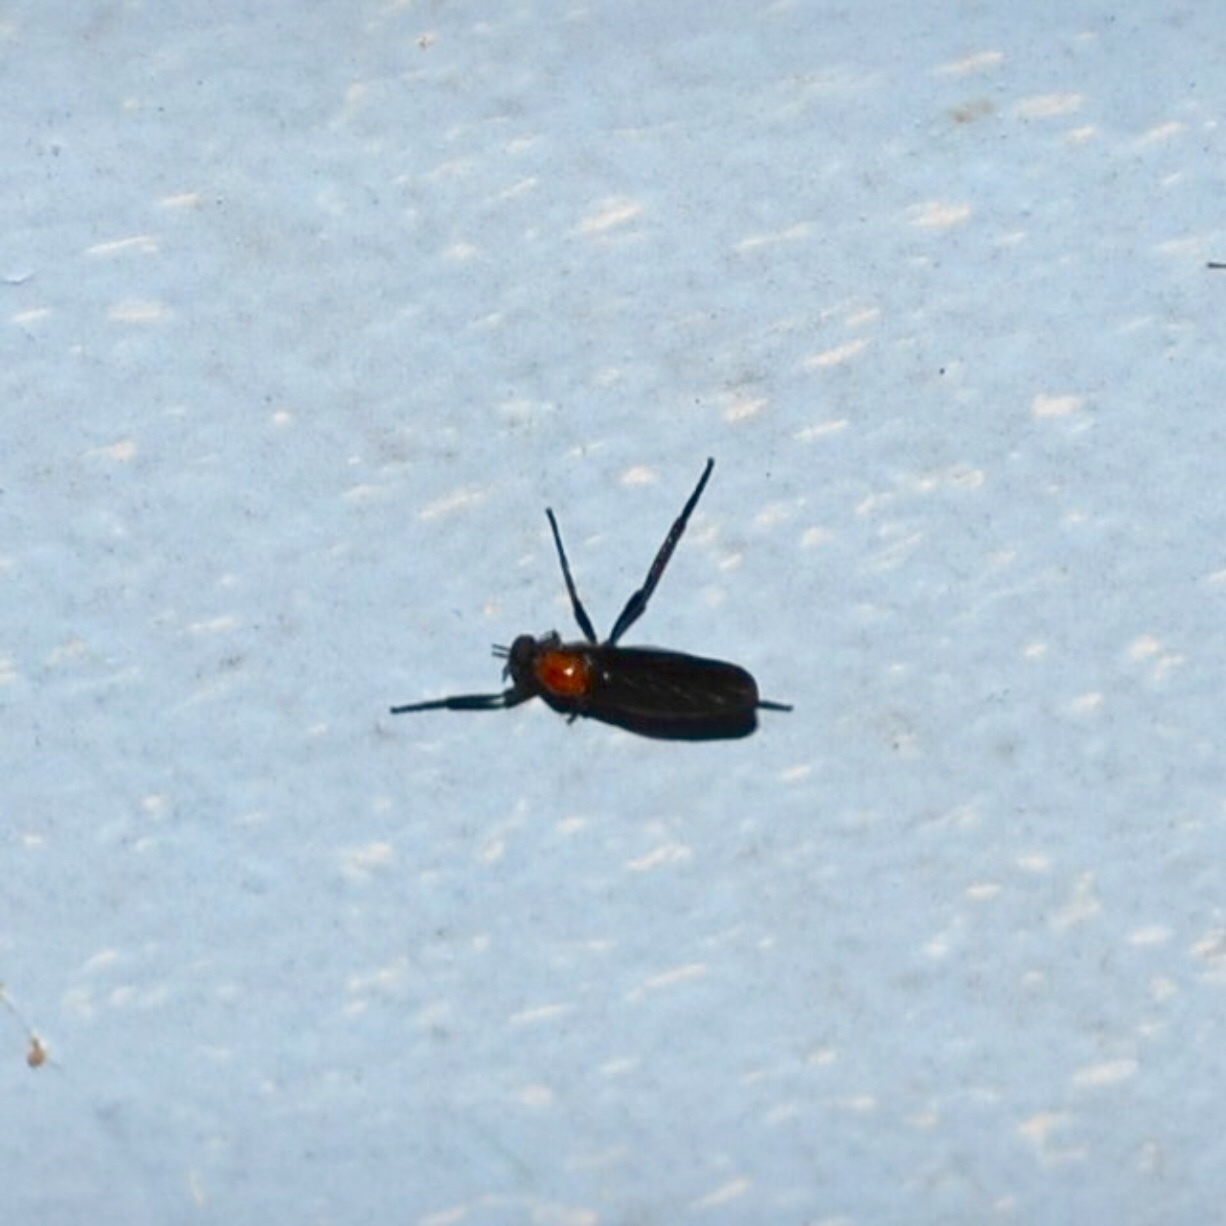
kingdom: Animalia
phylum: Arthropoda
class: Insecta
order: Diptera
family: Bibionidae
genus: Plecia
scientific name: Plecia nearctica
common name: March fly
